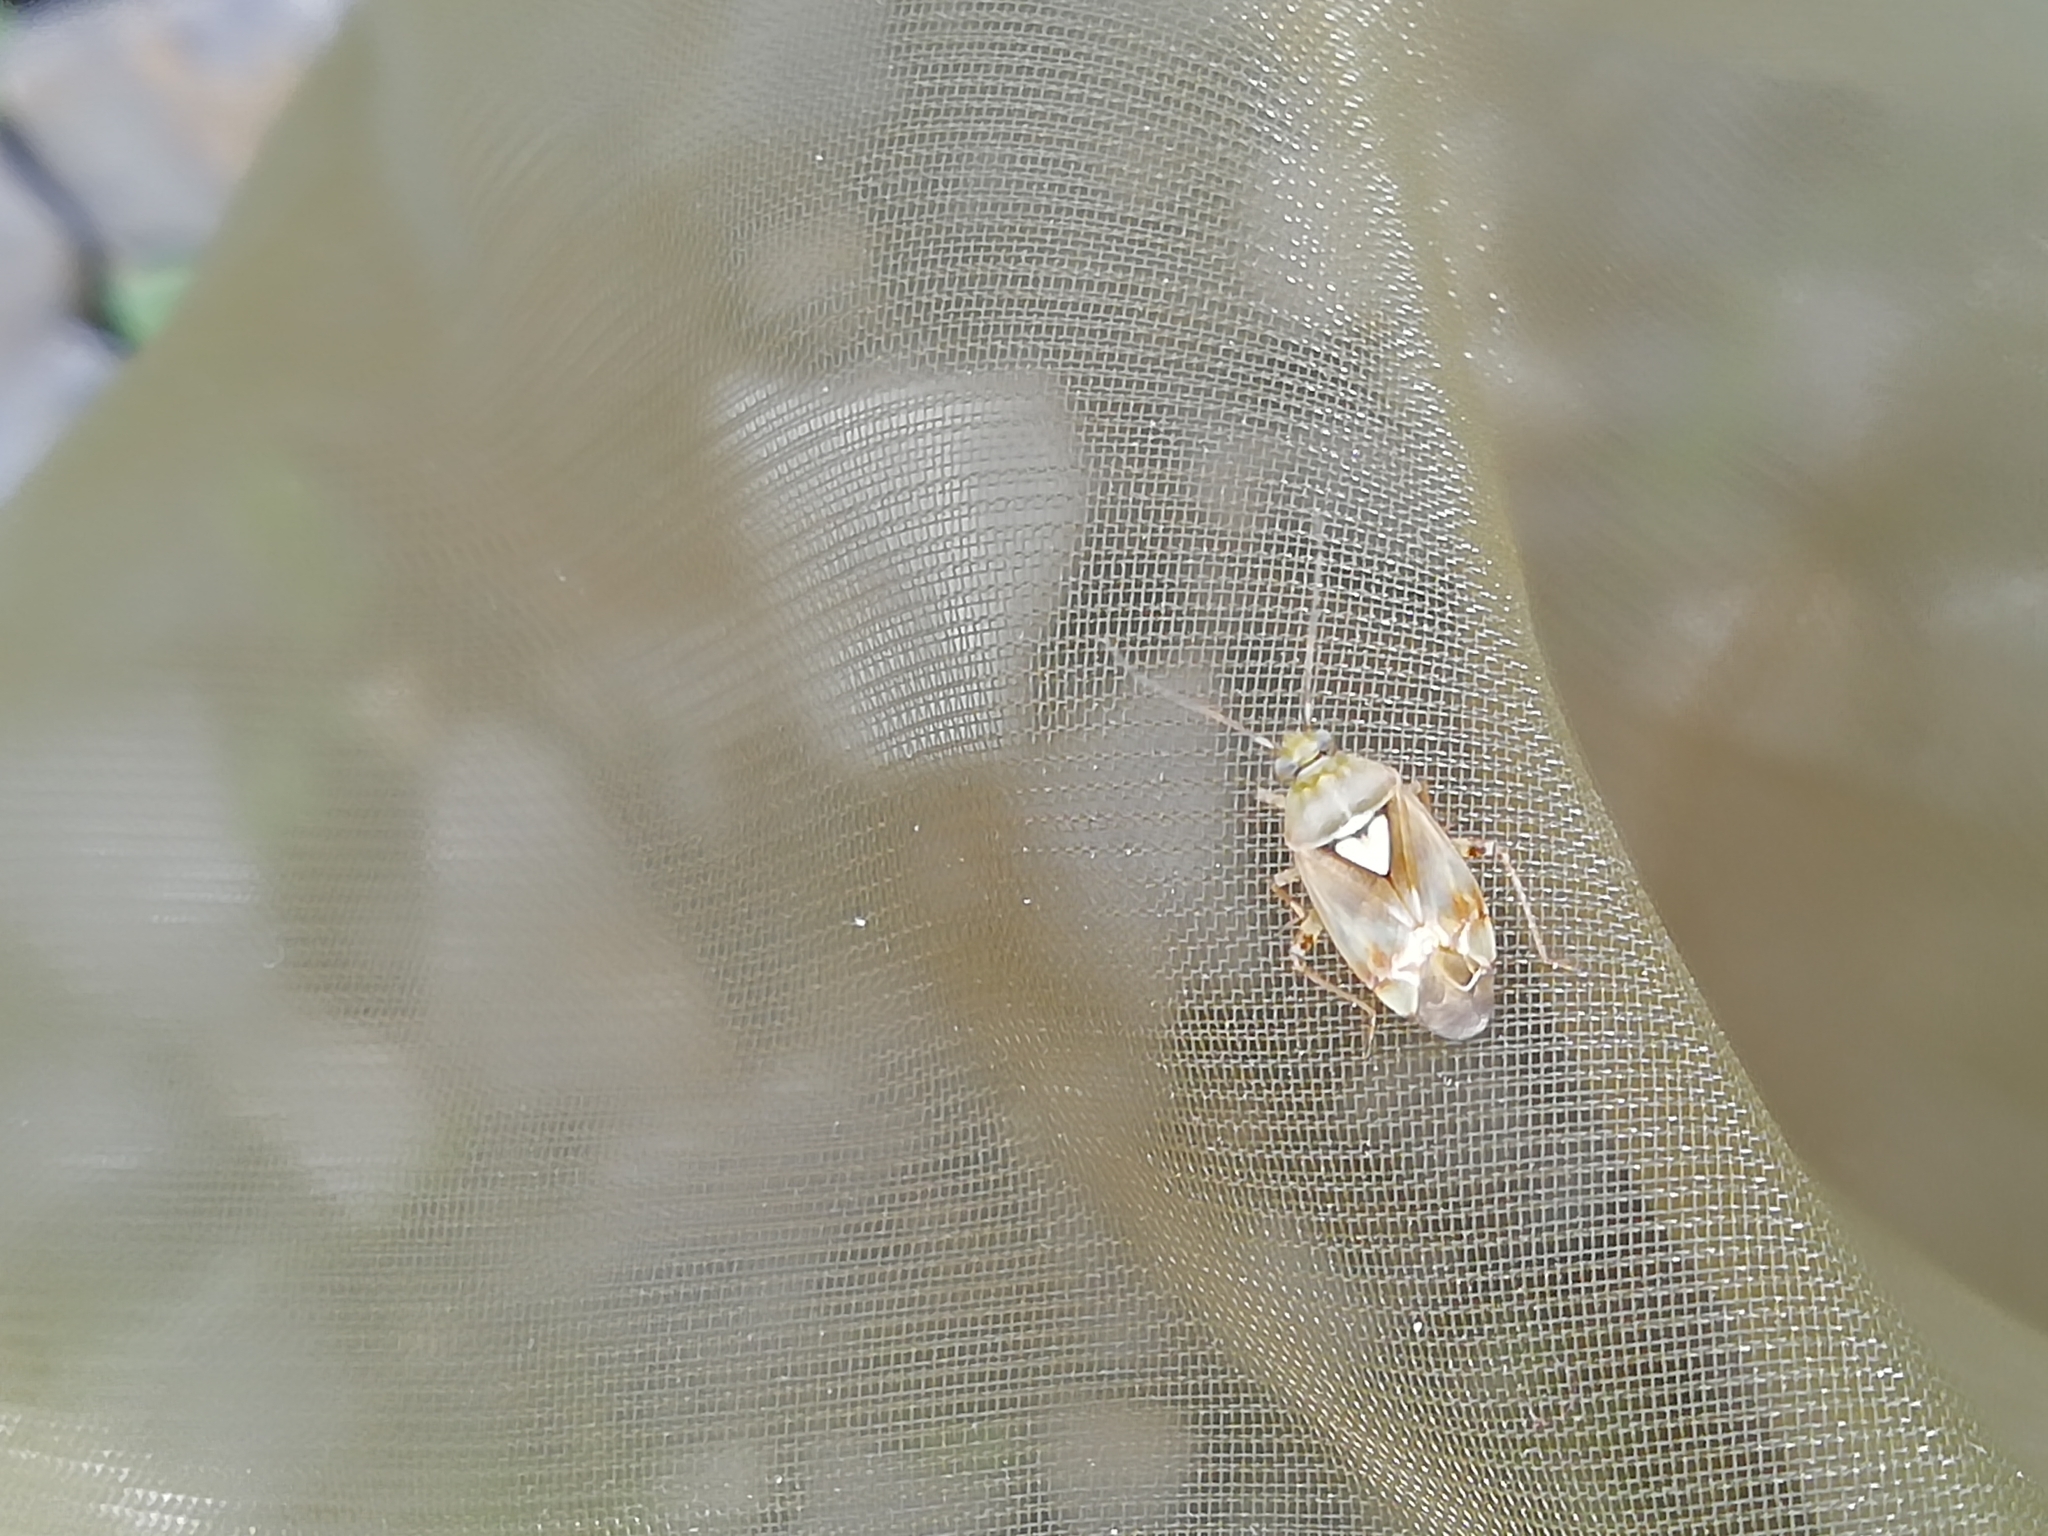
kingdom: Animalia
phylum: Arthropoda
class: Insecta
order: Hemiptera
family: Miridae
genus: Lygus
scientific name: Lygus pratensis
